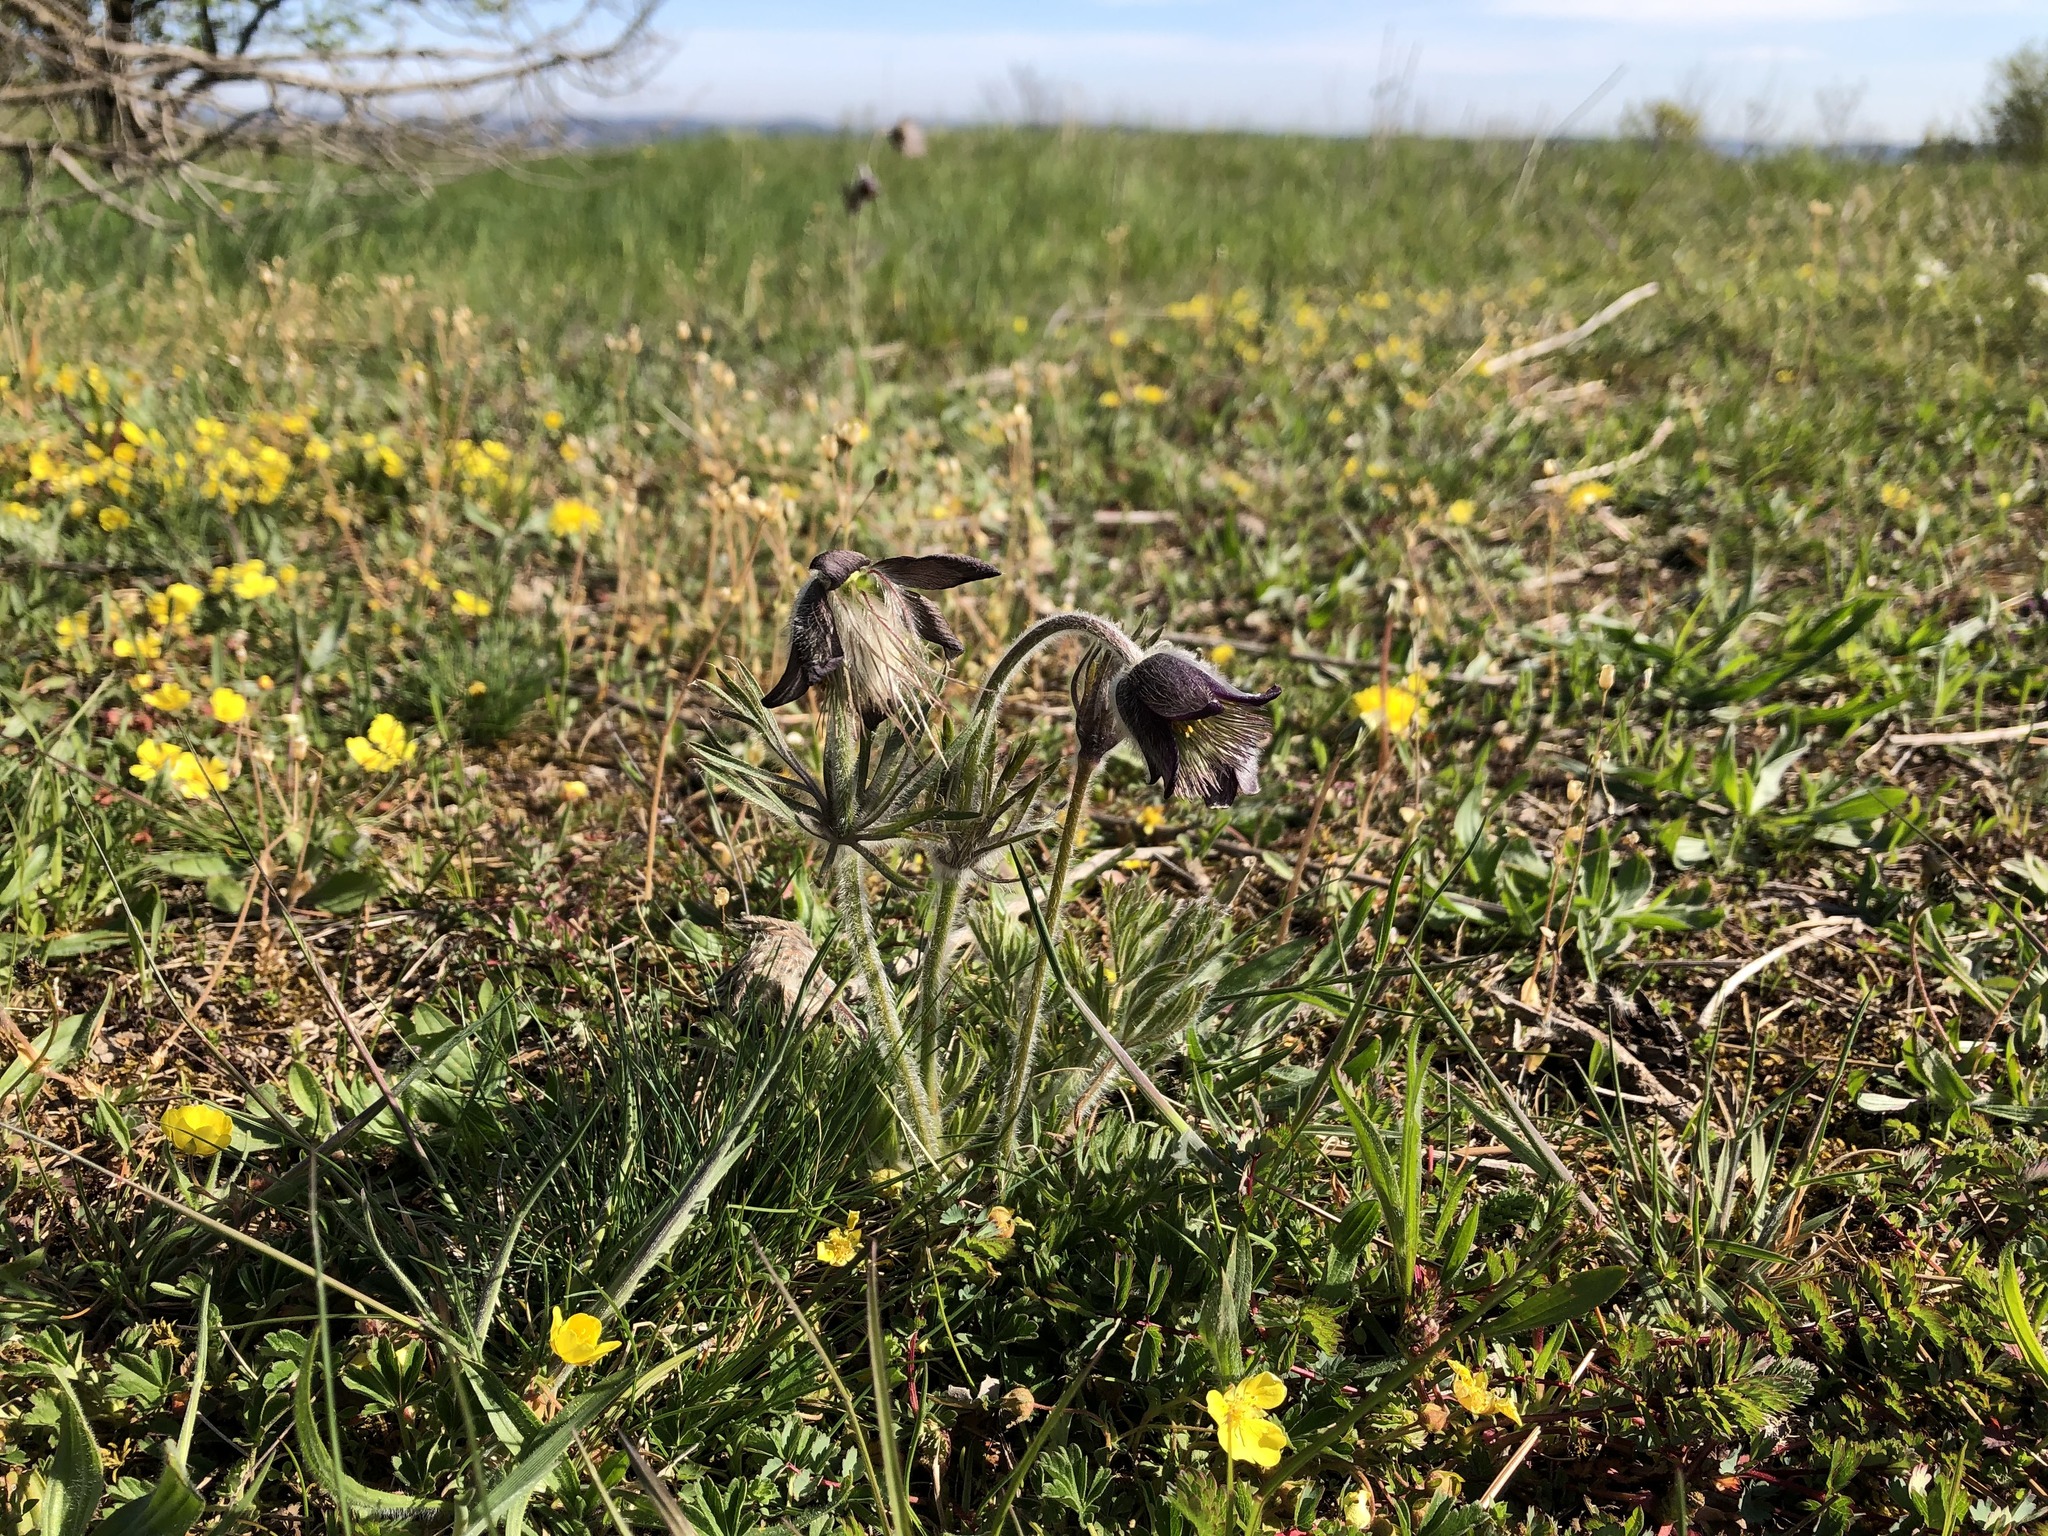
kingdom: Plantae
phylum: Tracheophyta
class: Magnoliopsida
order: Ranunculales
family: Ranunculaceae
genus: Pulsatilla
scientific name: Pulsatilla pratensis
